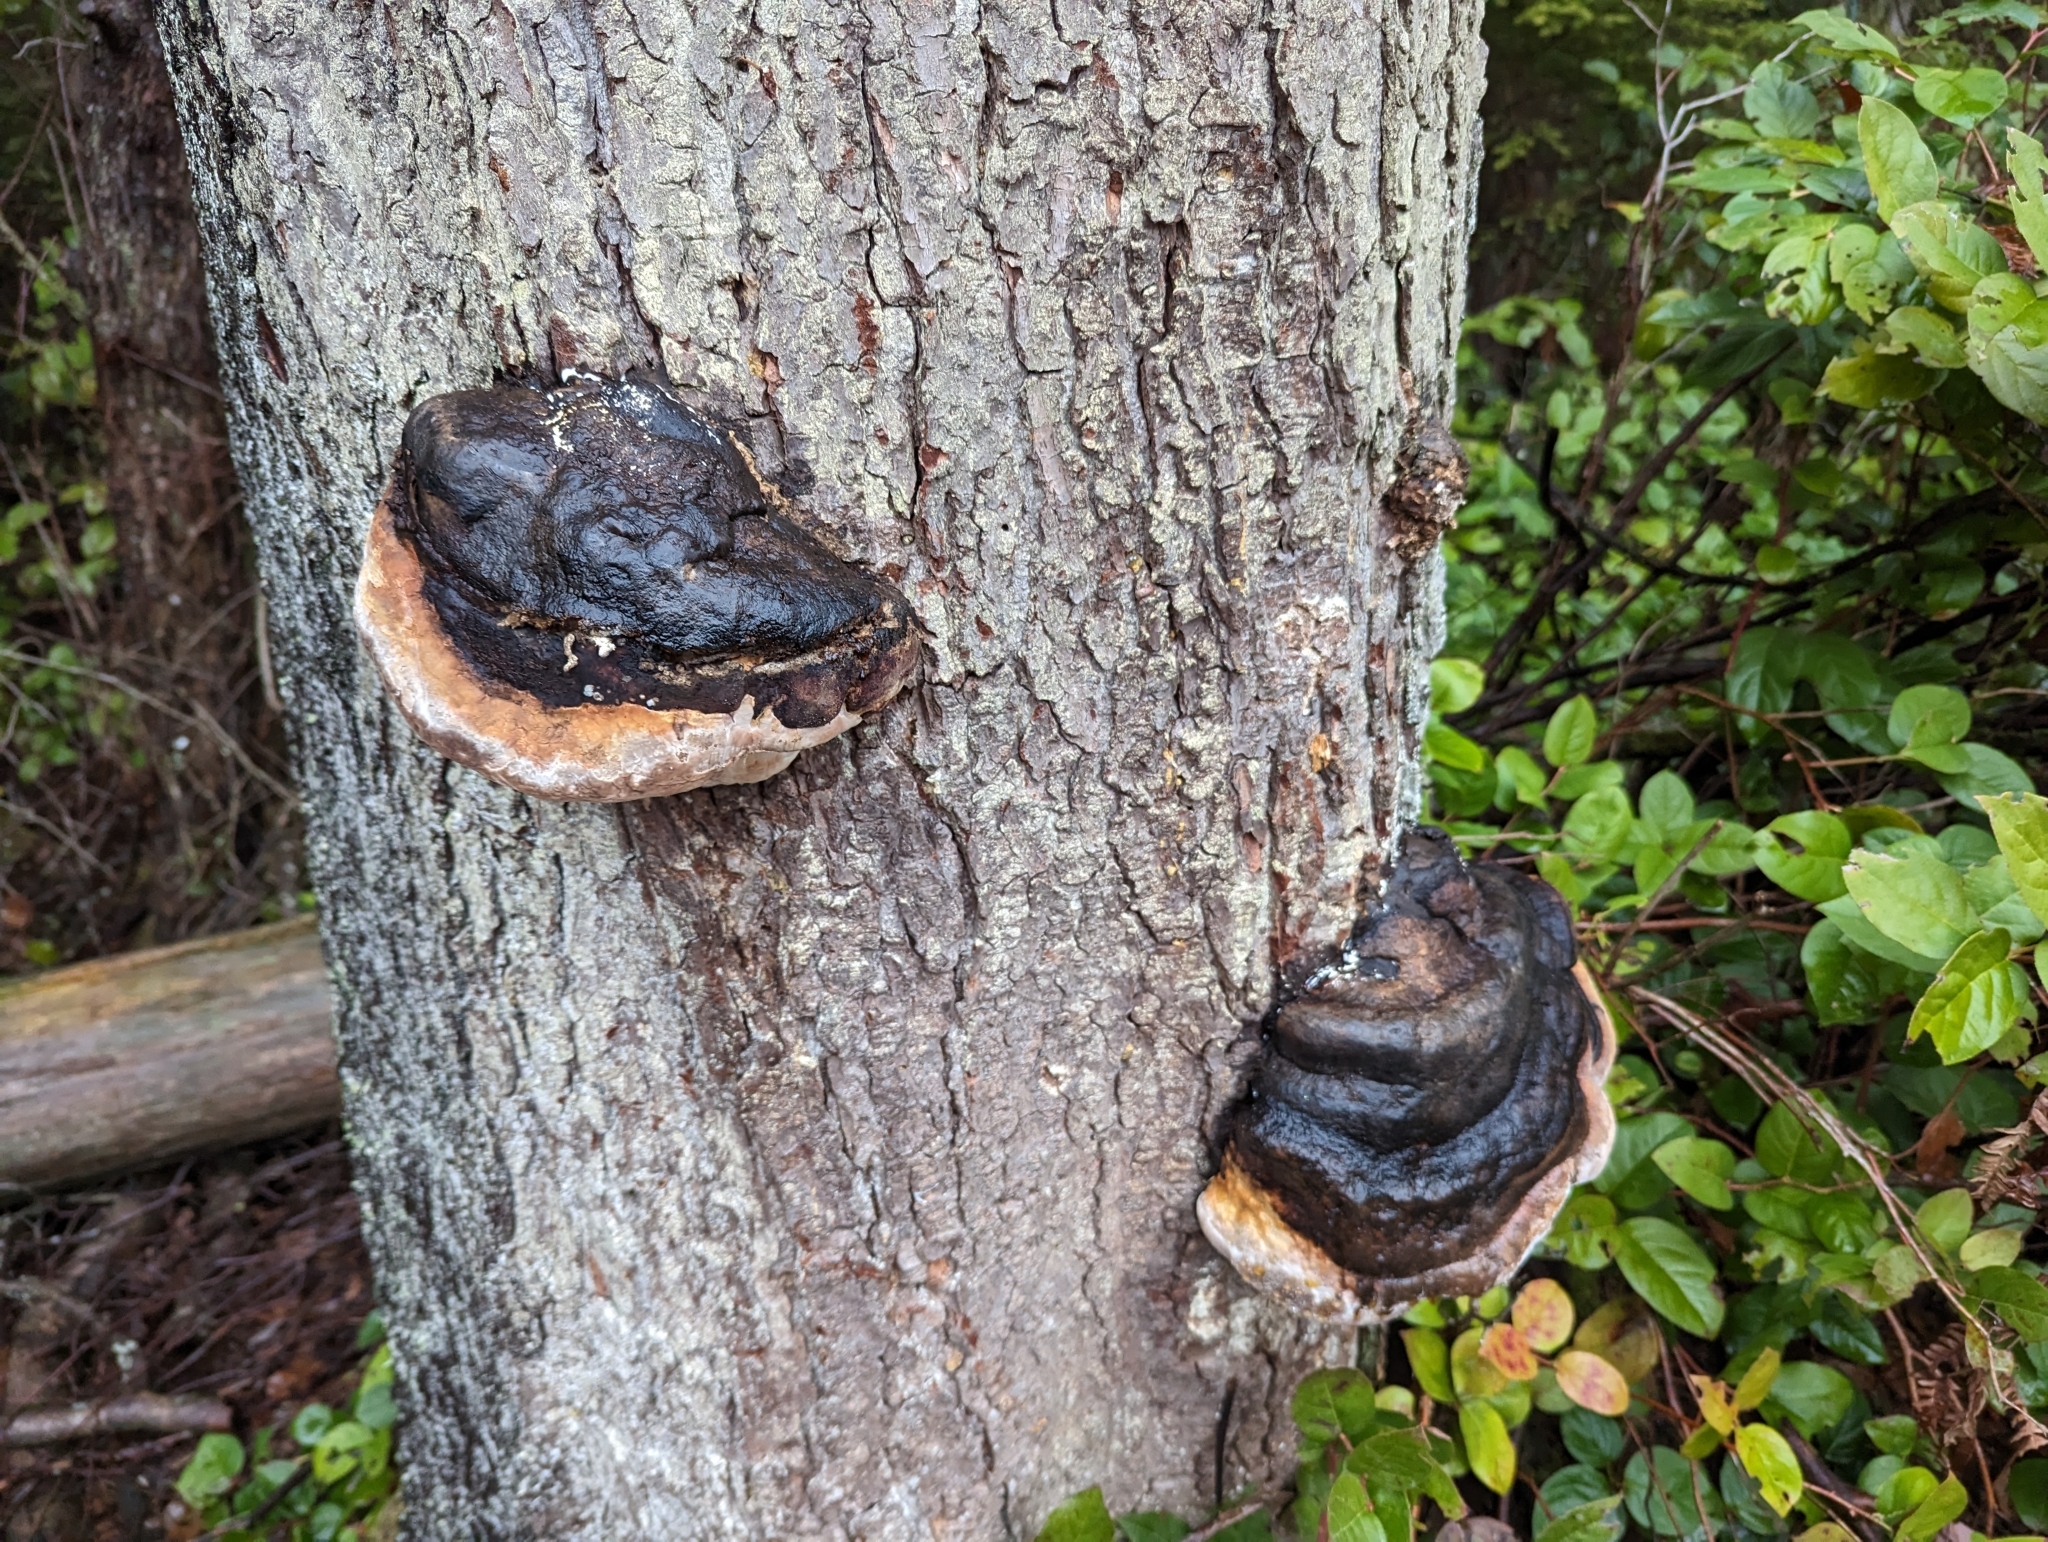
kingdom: Fungi
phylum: Basidiomycota
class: Agaricomycetes
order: Polyporales
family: Fomitopsidaceae
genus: Fomitopsis
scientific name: Fomitopsis mounceae
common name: Northern red belt
